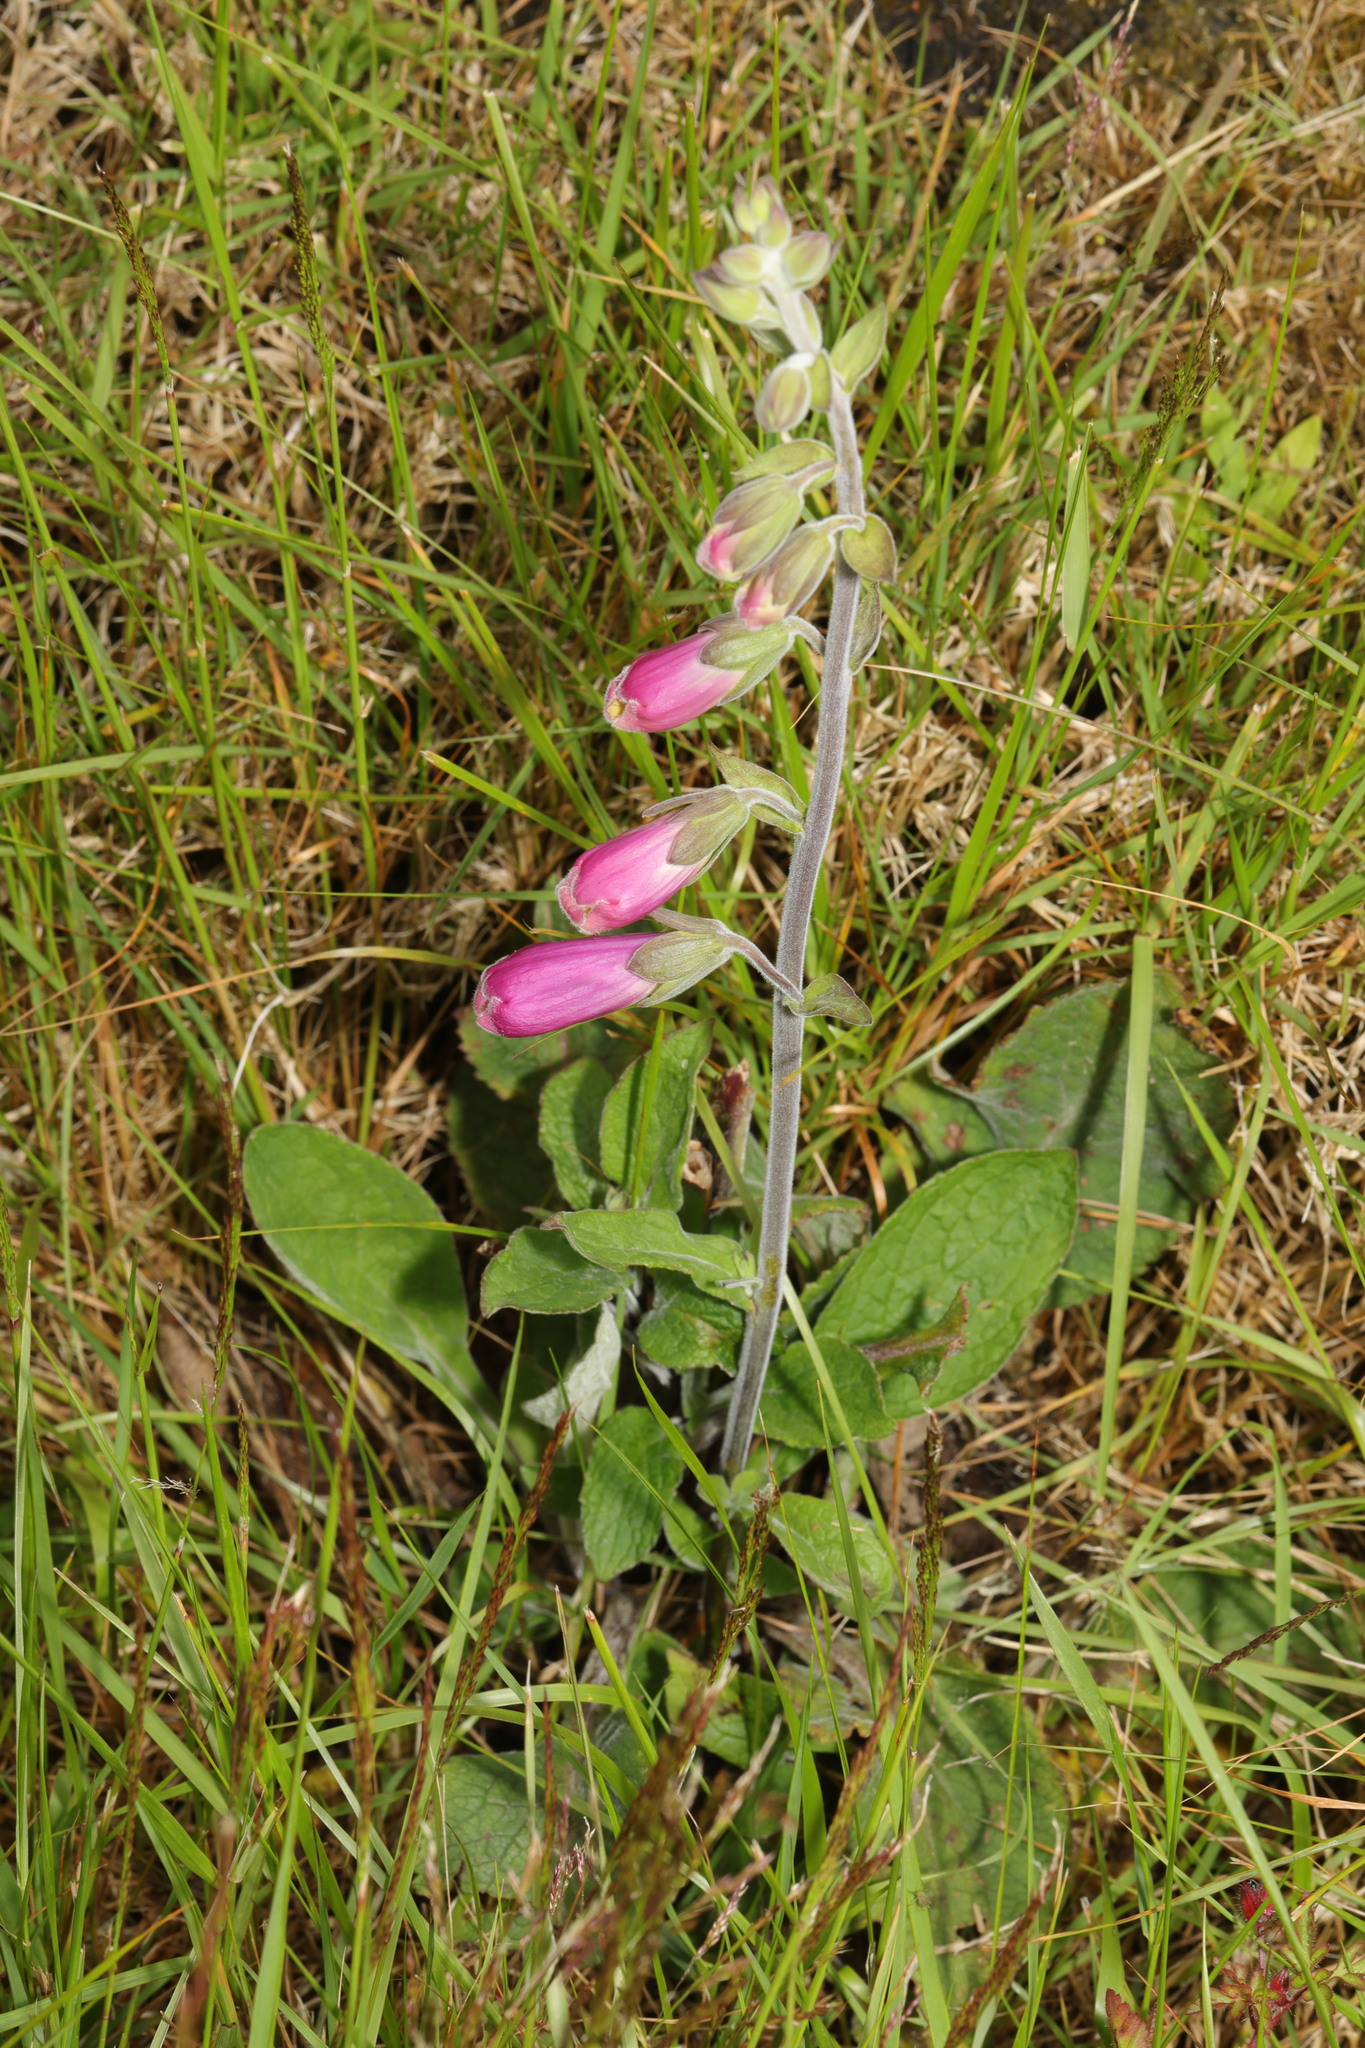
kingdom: Plantae
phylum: Tracheophyta
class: Magnoliopsida
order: Lamiales
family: Plantaginaceae
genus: Digitalis
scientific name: Digitalis purpurea
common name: Foxglove
